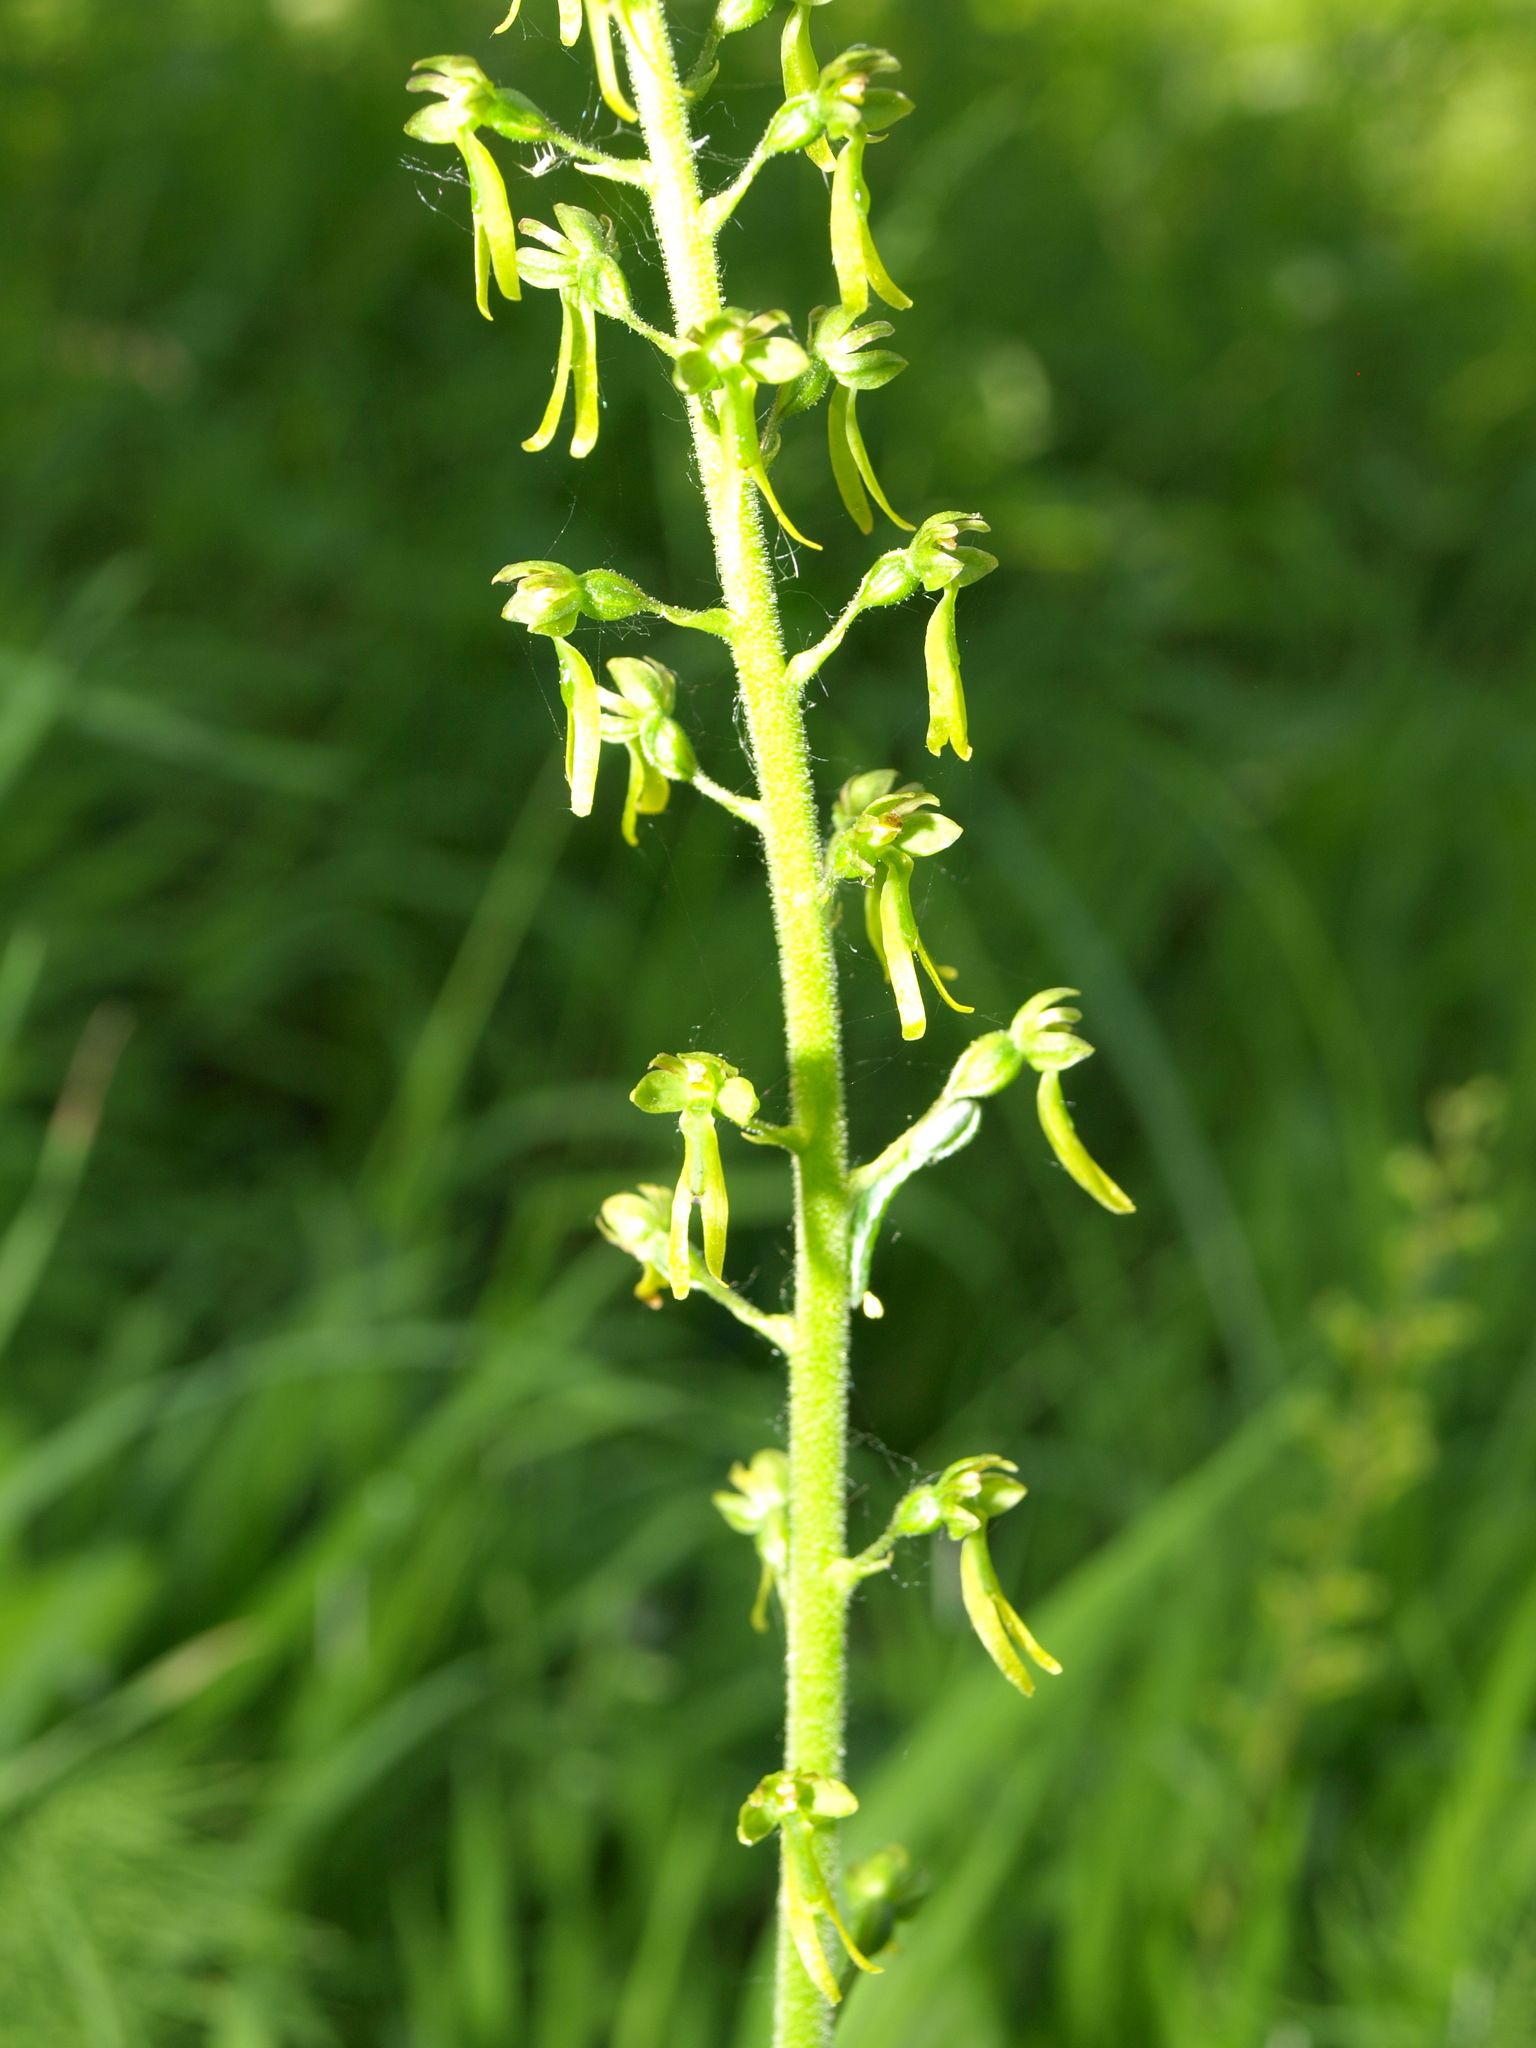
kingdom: Plantae
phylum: Tracheophyta
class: Liliopsida
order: Asparagales
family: Orchidaceae
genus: Neottia
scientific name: Neottia ovata
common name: Common twayblade
